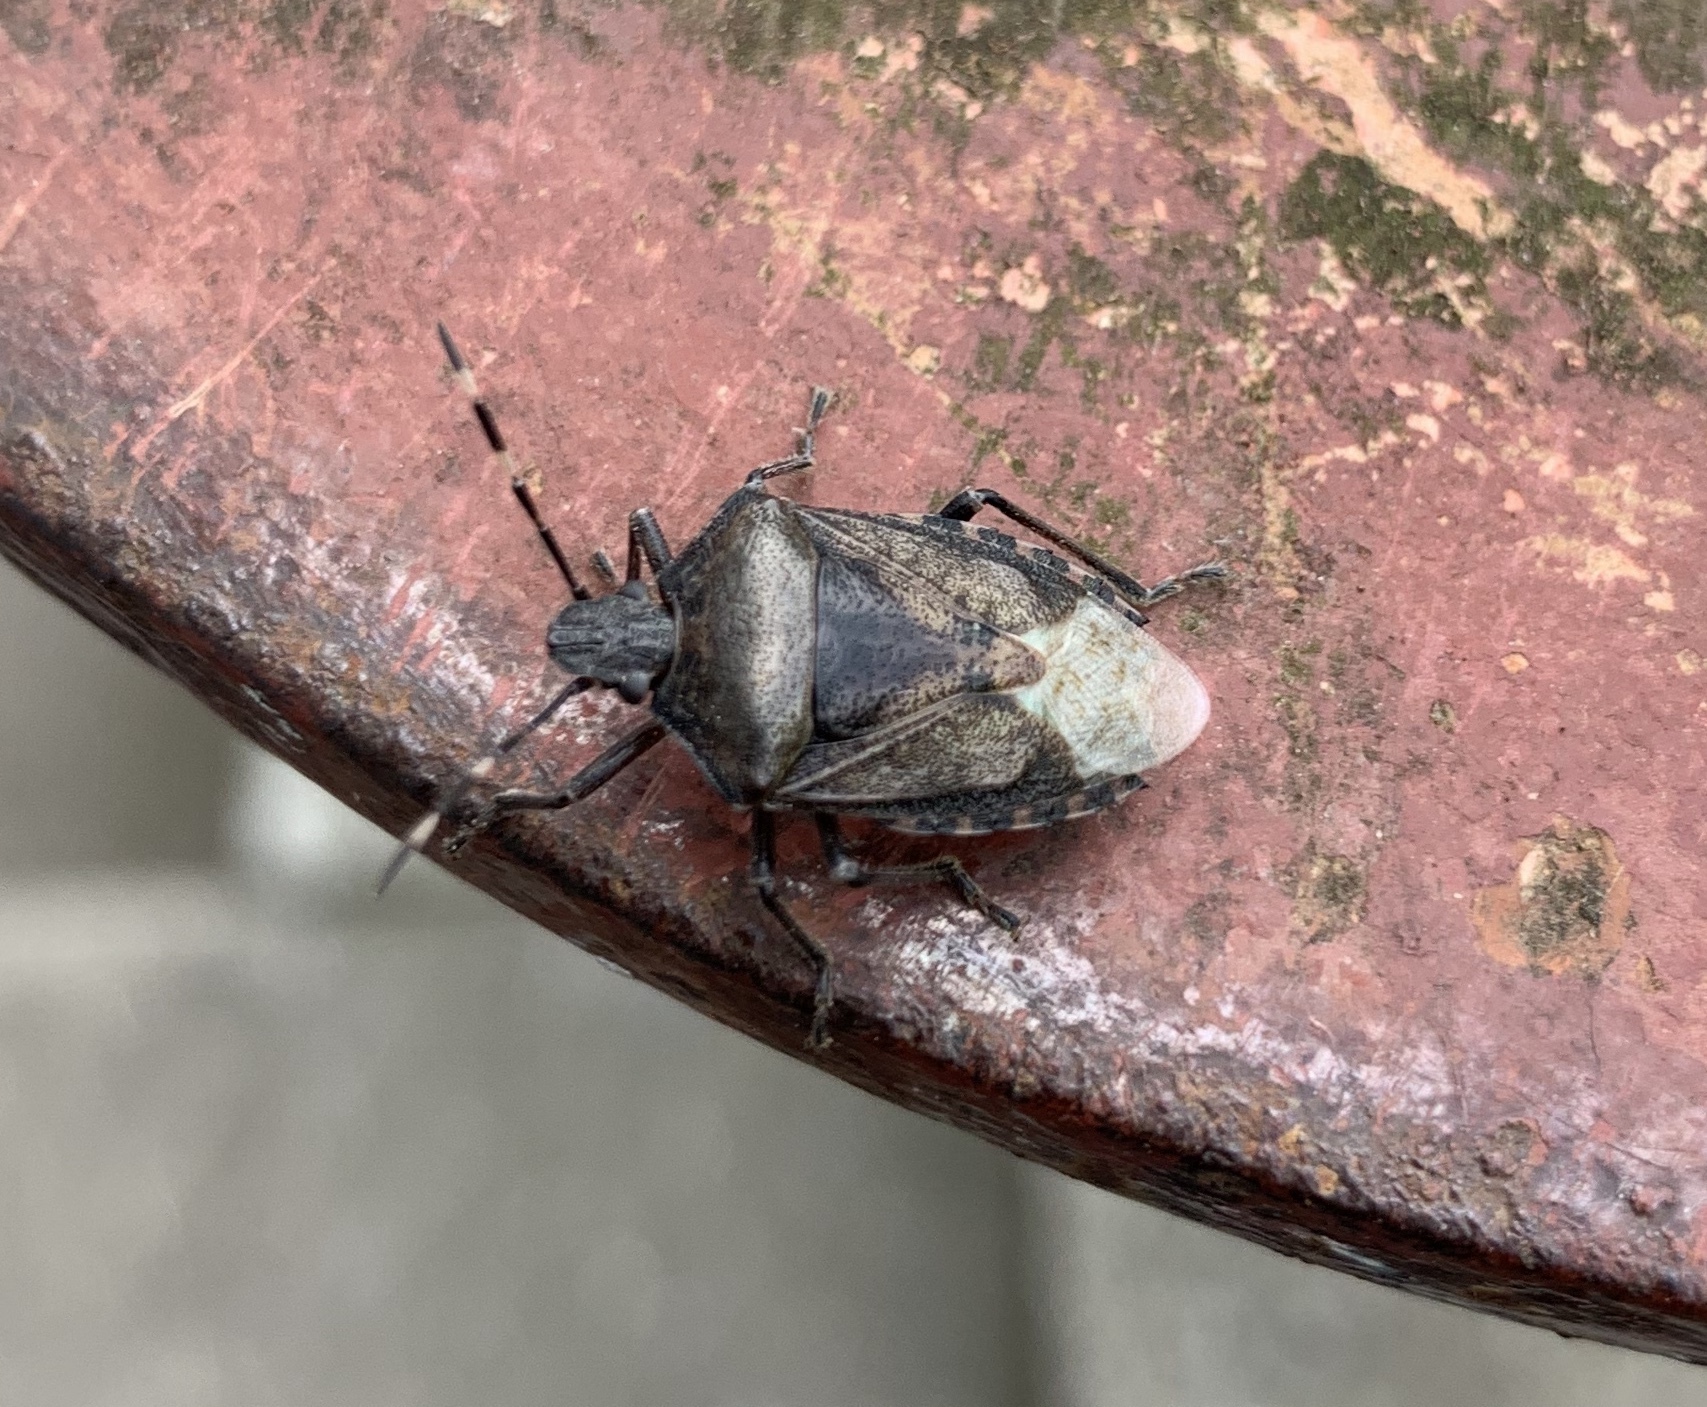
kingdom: Animalia
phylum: Arthropoda
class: Insecta
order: Hemiptera
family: Pentatomidae
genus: Rhaphigaster
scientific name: Rhaphigaster nebulosa
